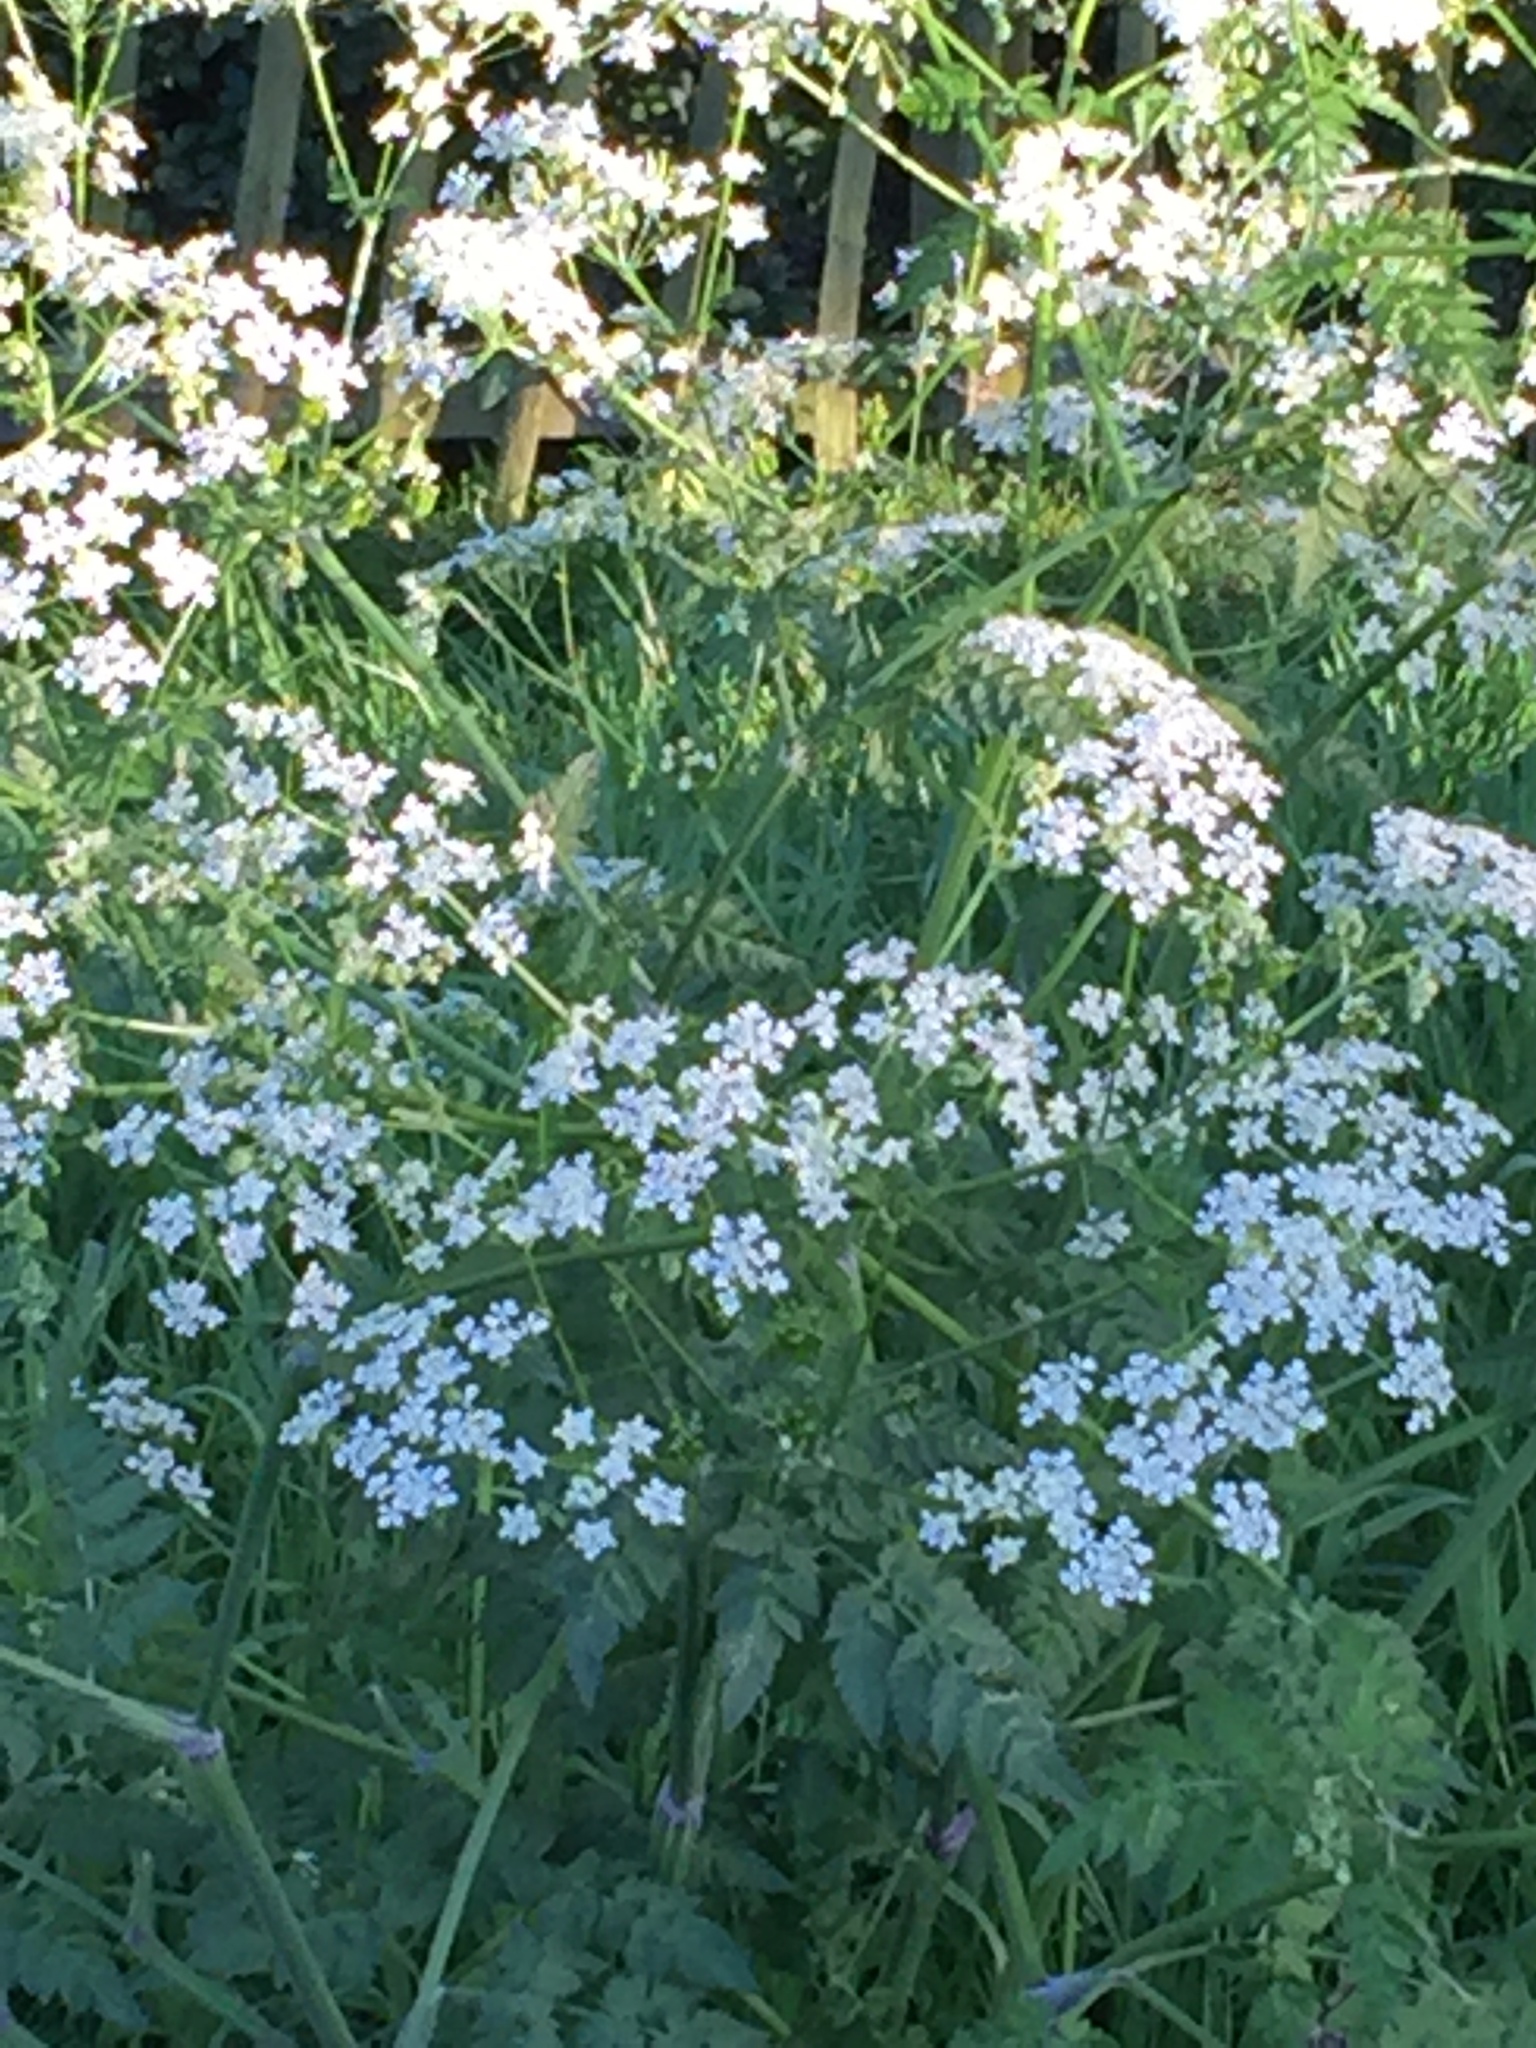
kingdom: Plantae
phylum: Tracheophyta
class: Magnoliopsida
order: Apiales
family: Apiaceae
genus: Anthriscus
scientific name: Anthriscus sylvestris
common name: Cow parsley
